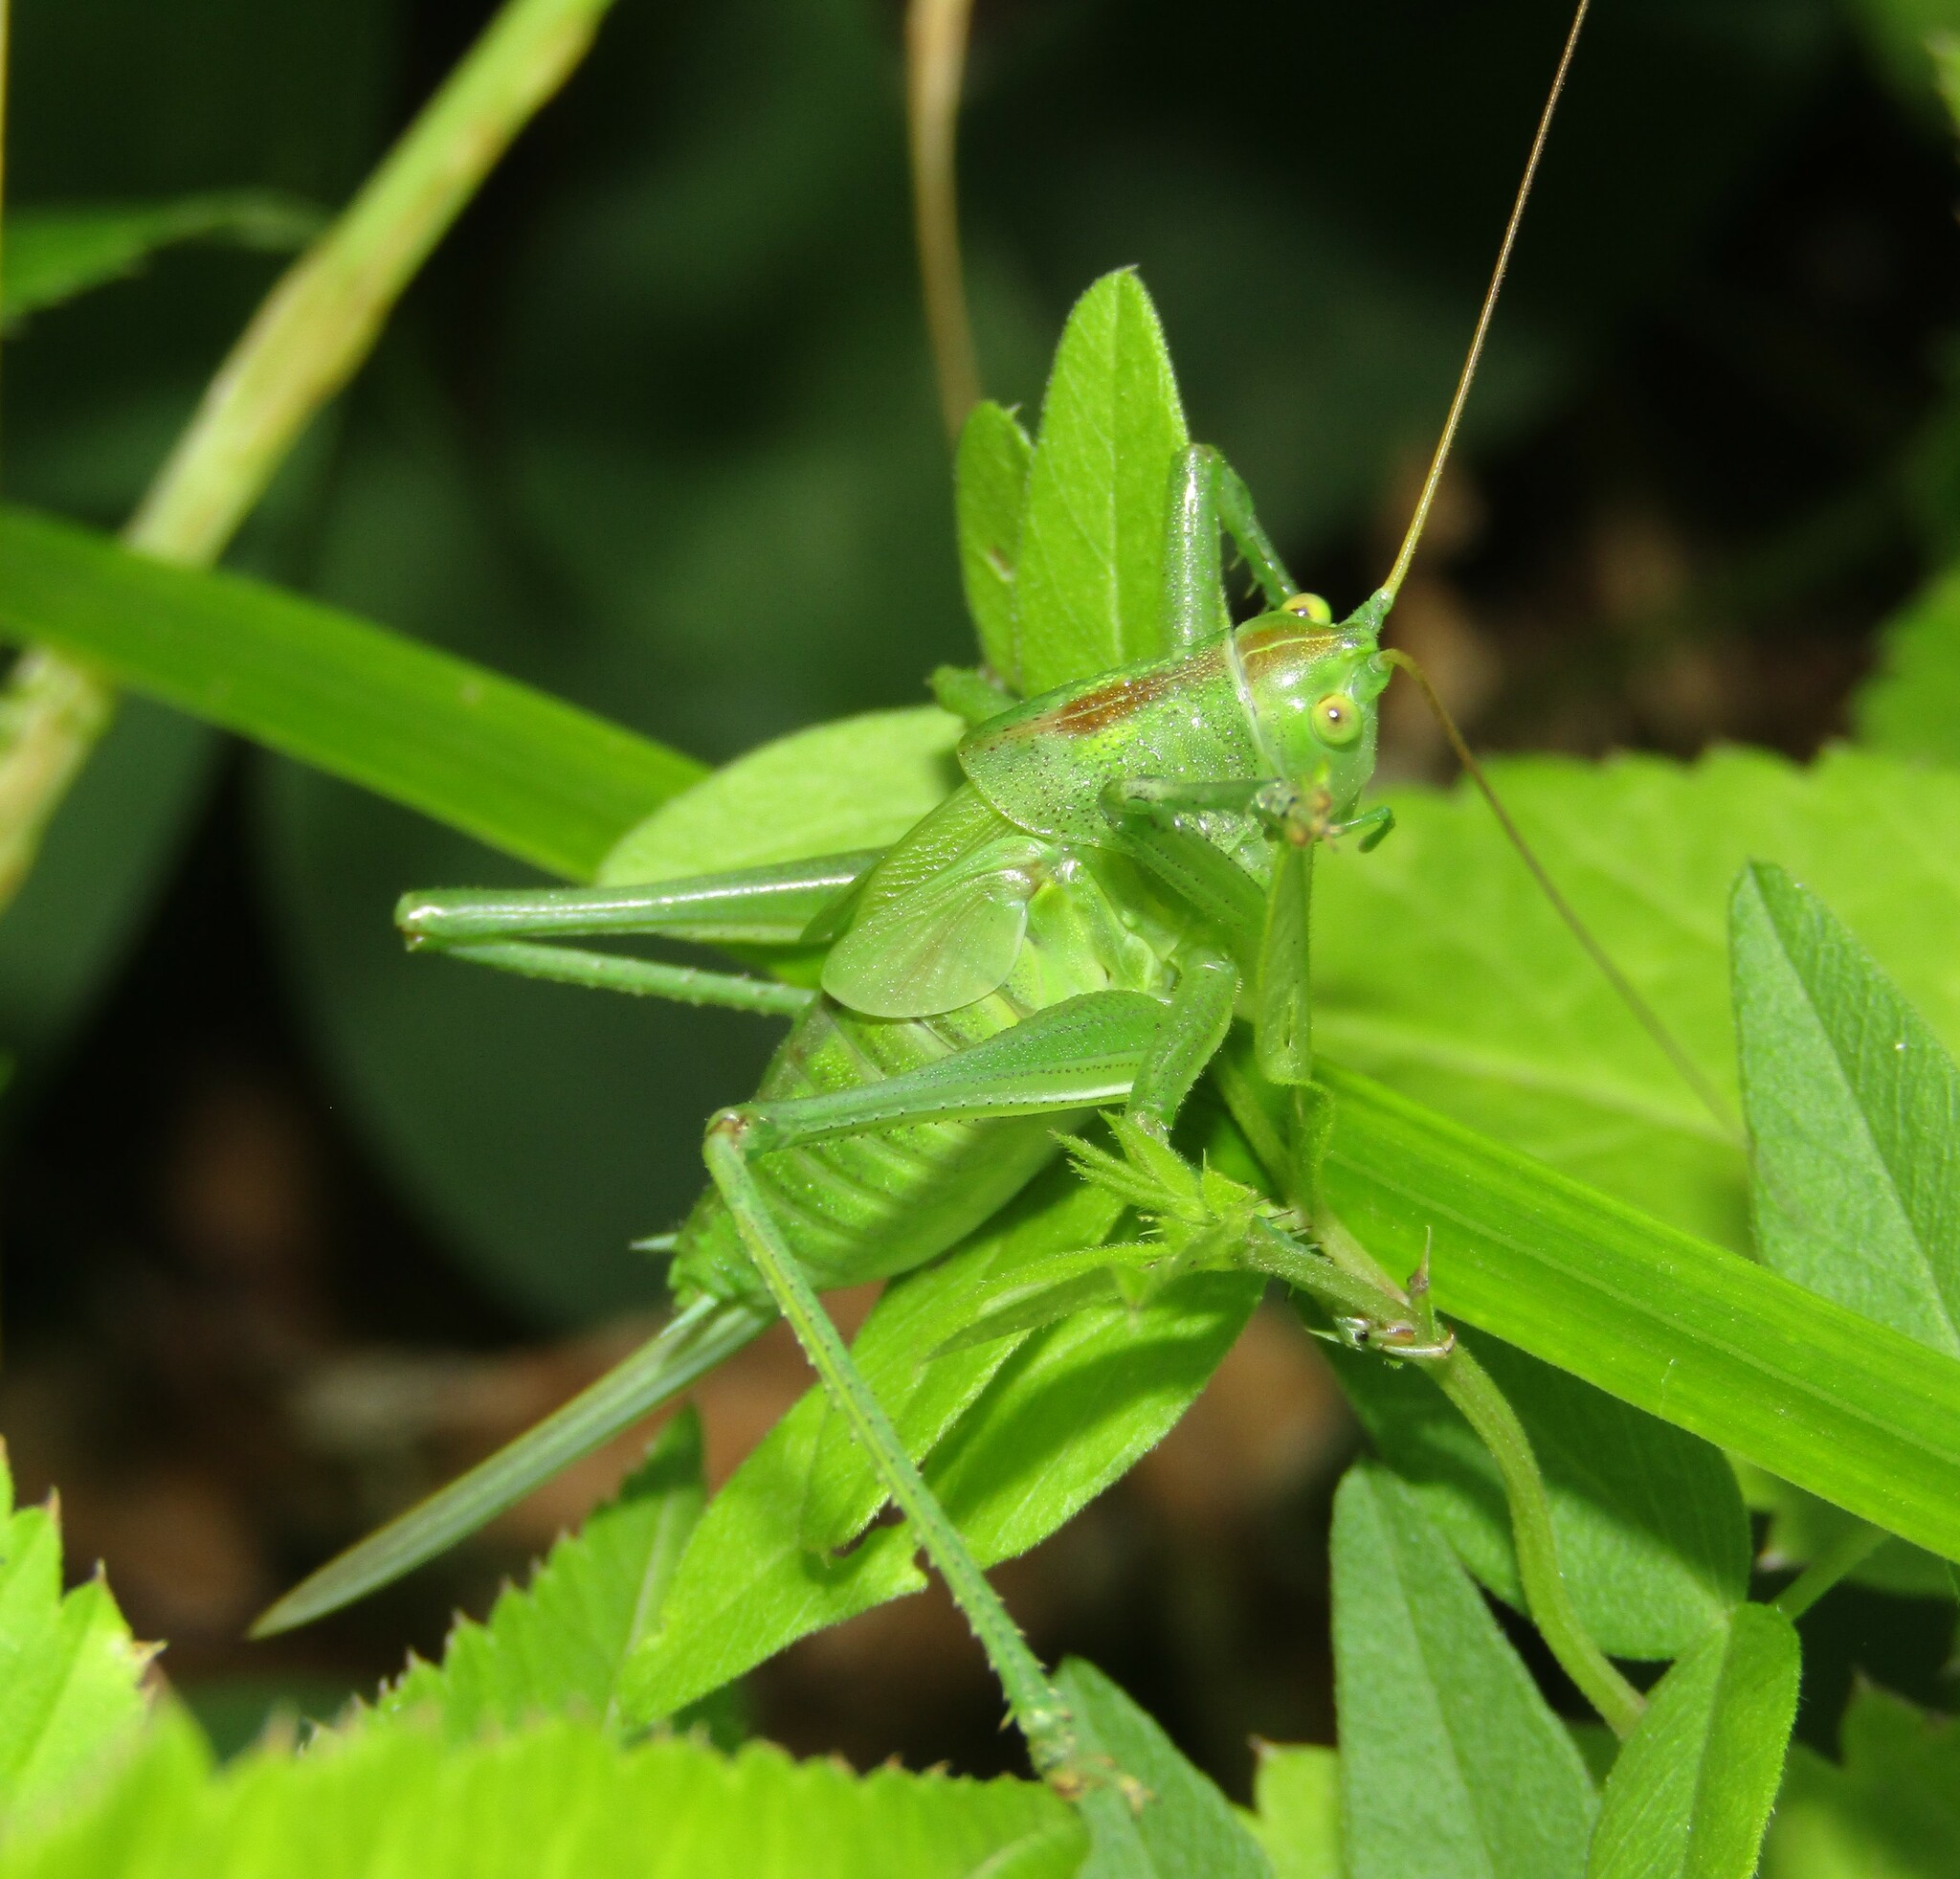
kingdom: Animalia
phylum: Arthropoda
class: Insecta
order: Orthoptera
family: Tettigoniidae
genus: Tettigonia
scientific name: Tettigonia cantans
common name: Upland green bush-cricket
